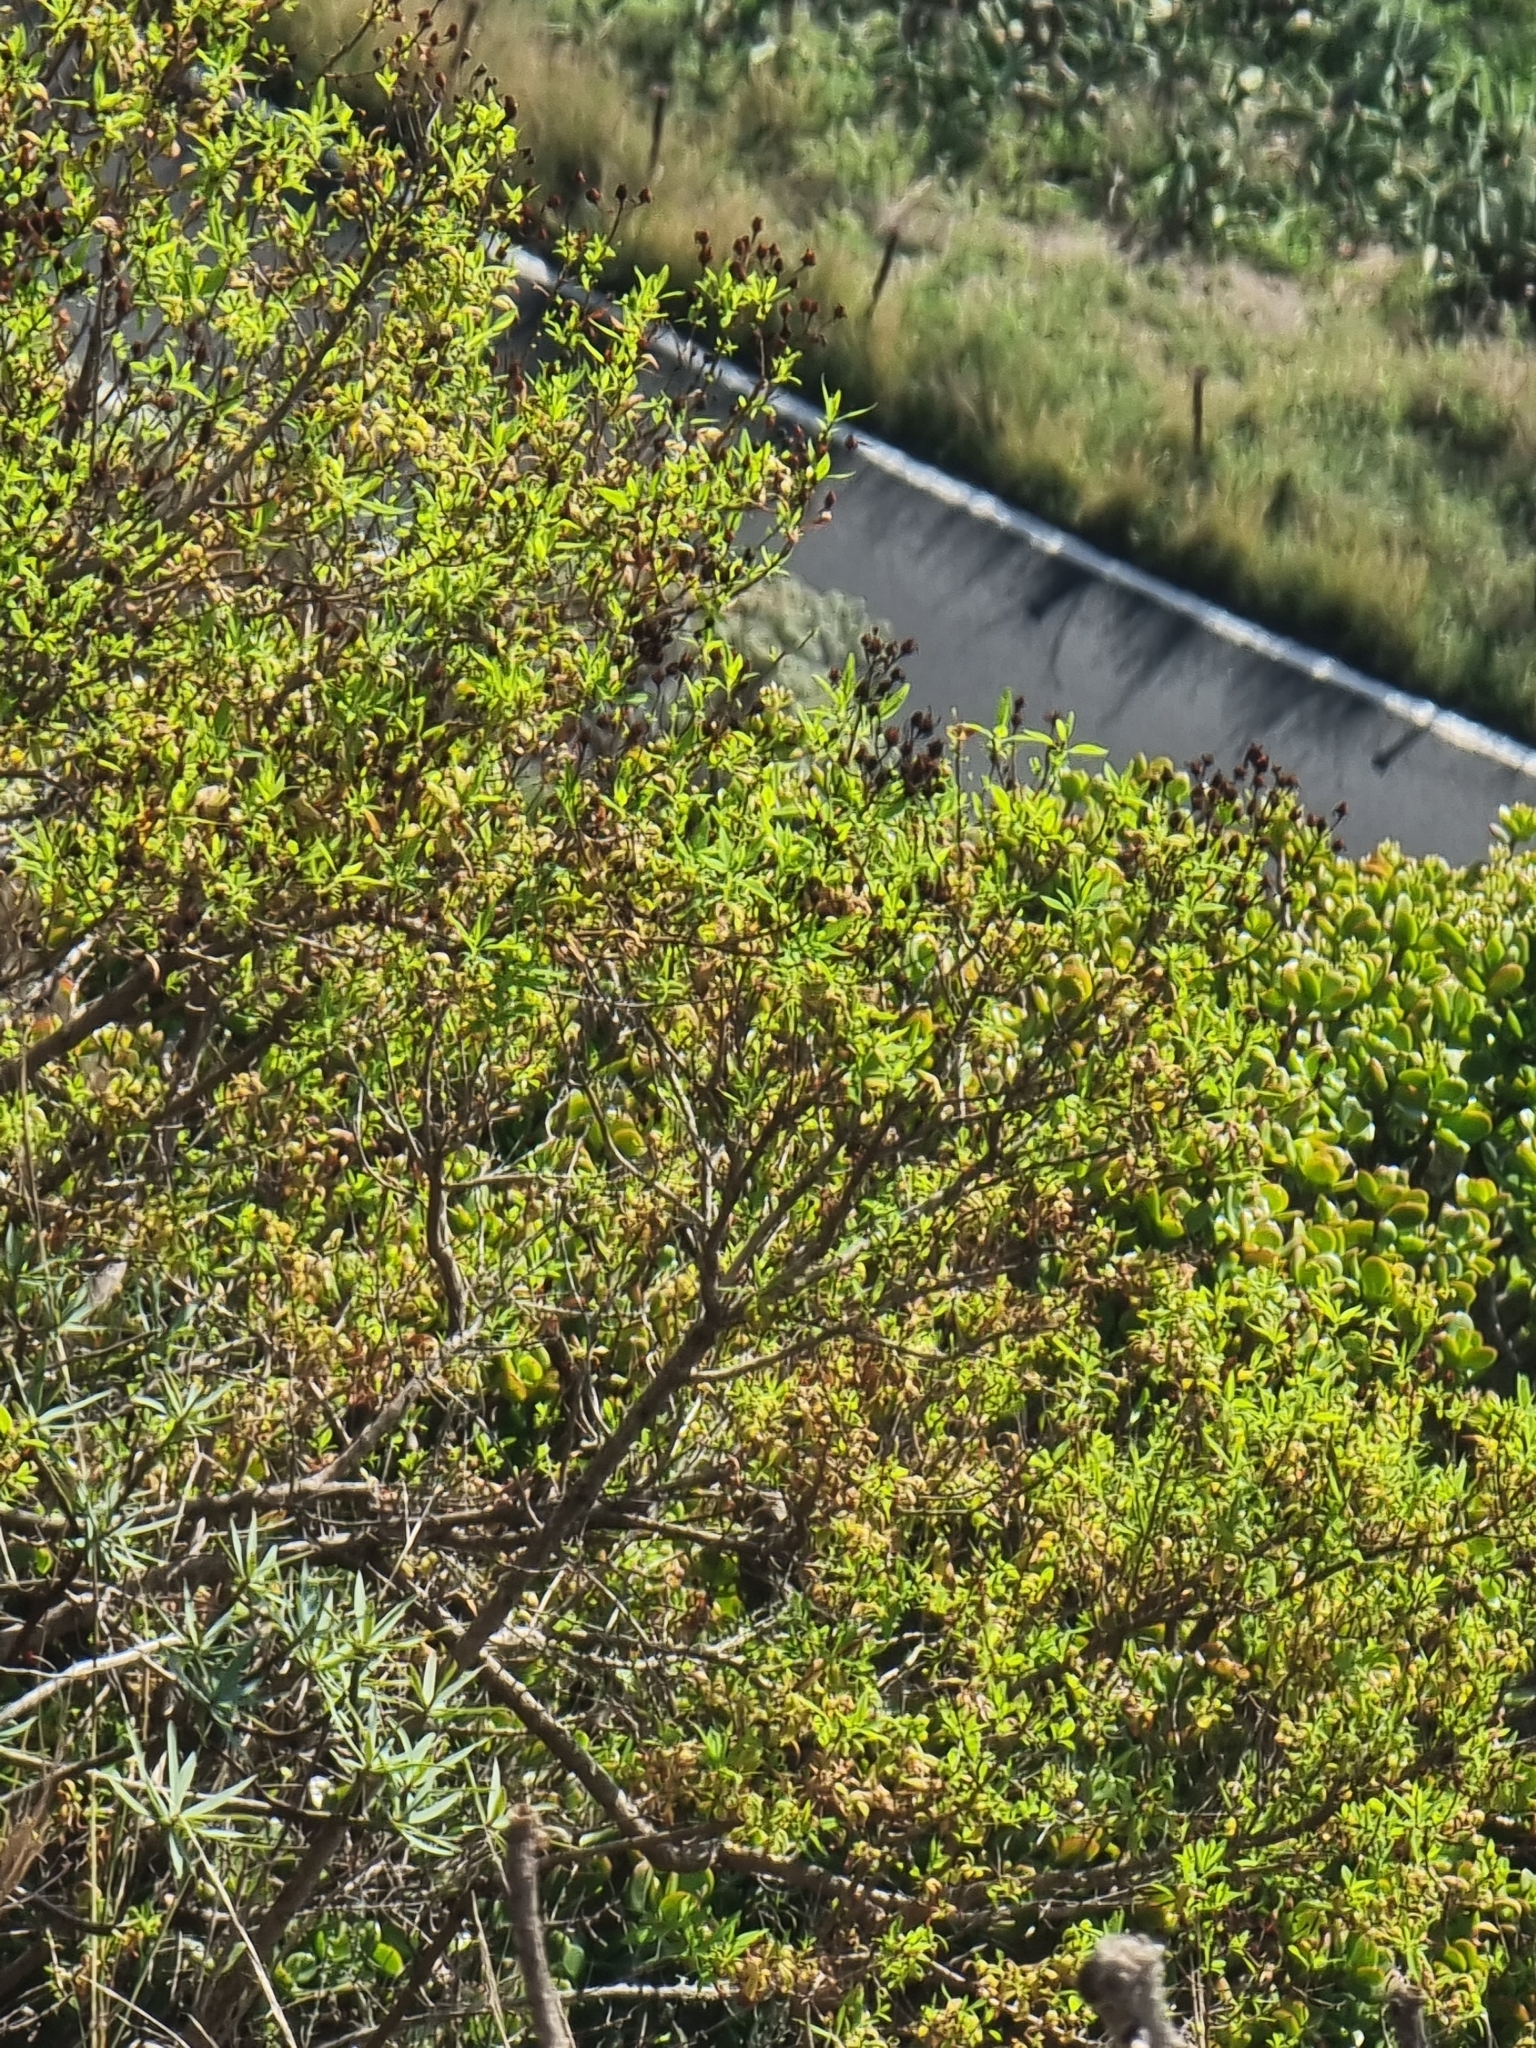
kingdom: Plantae
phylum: Tracheophyta
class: Magnoliopsida
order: Malpighiales
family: Hypericaceae
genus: Hypericum
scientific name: Hypericum canariense
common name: Canary island st. johnswort
